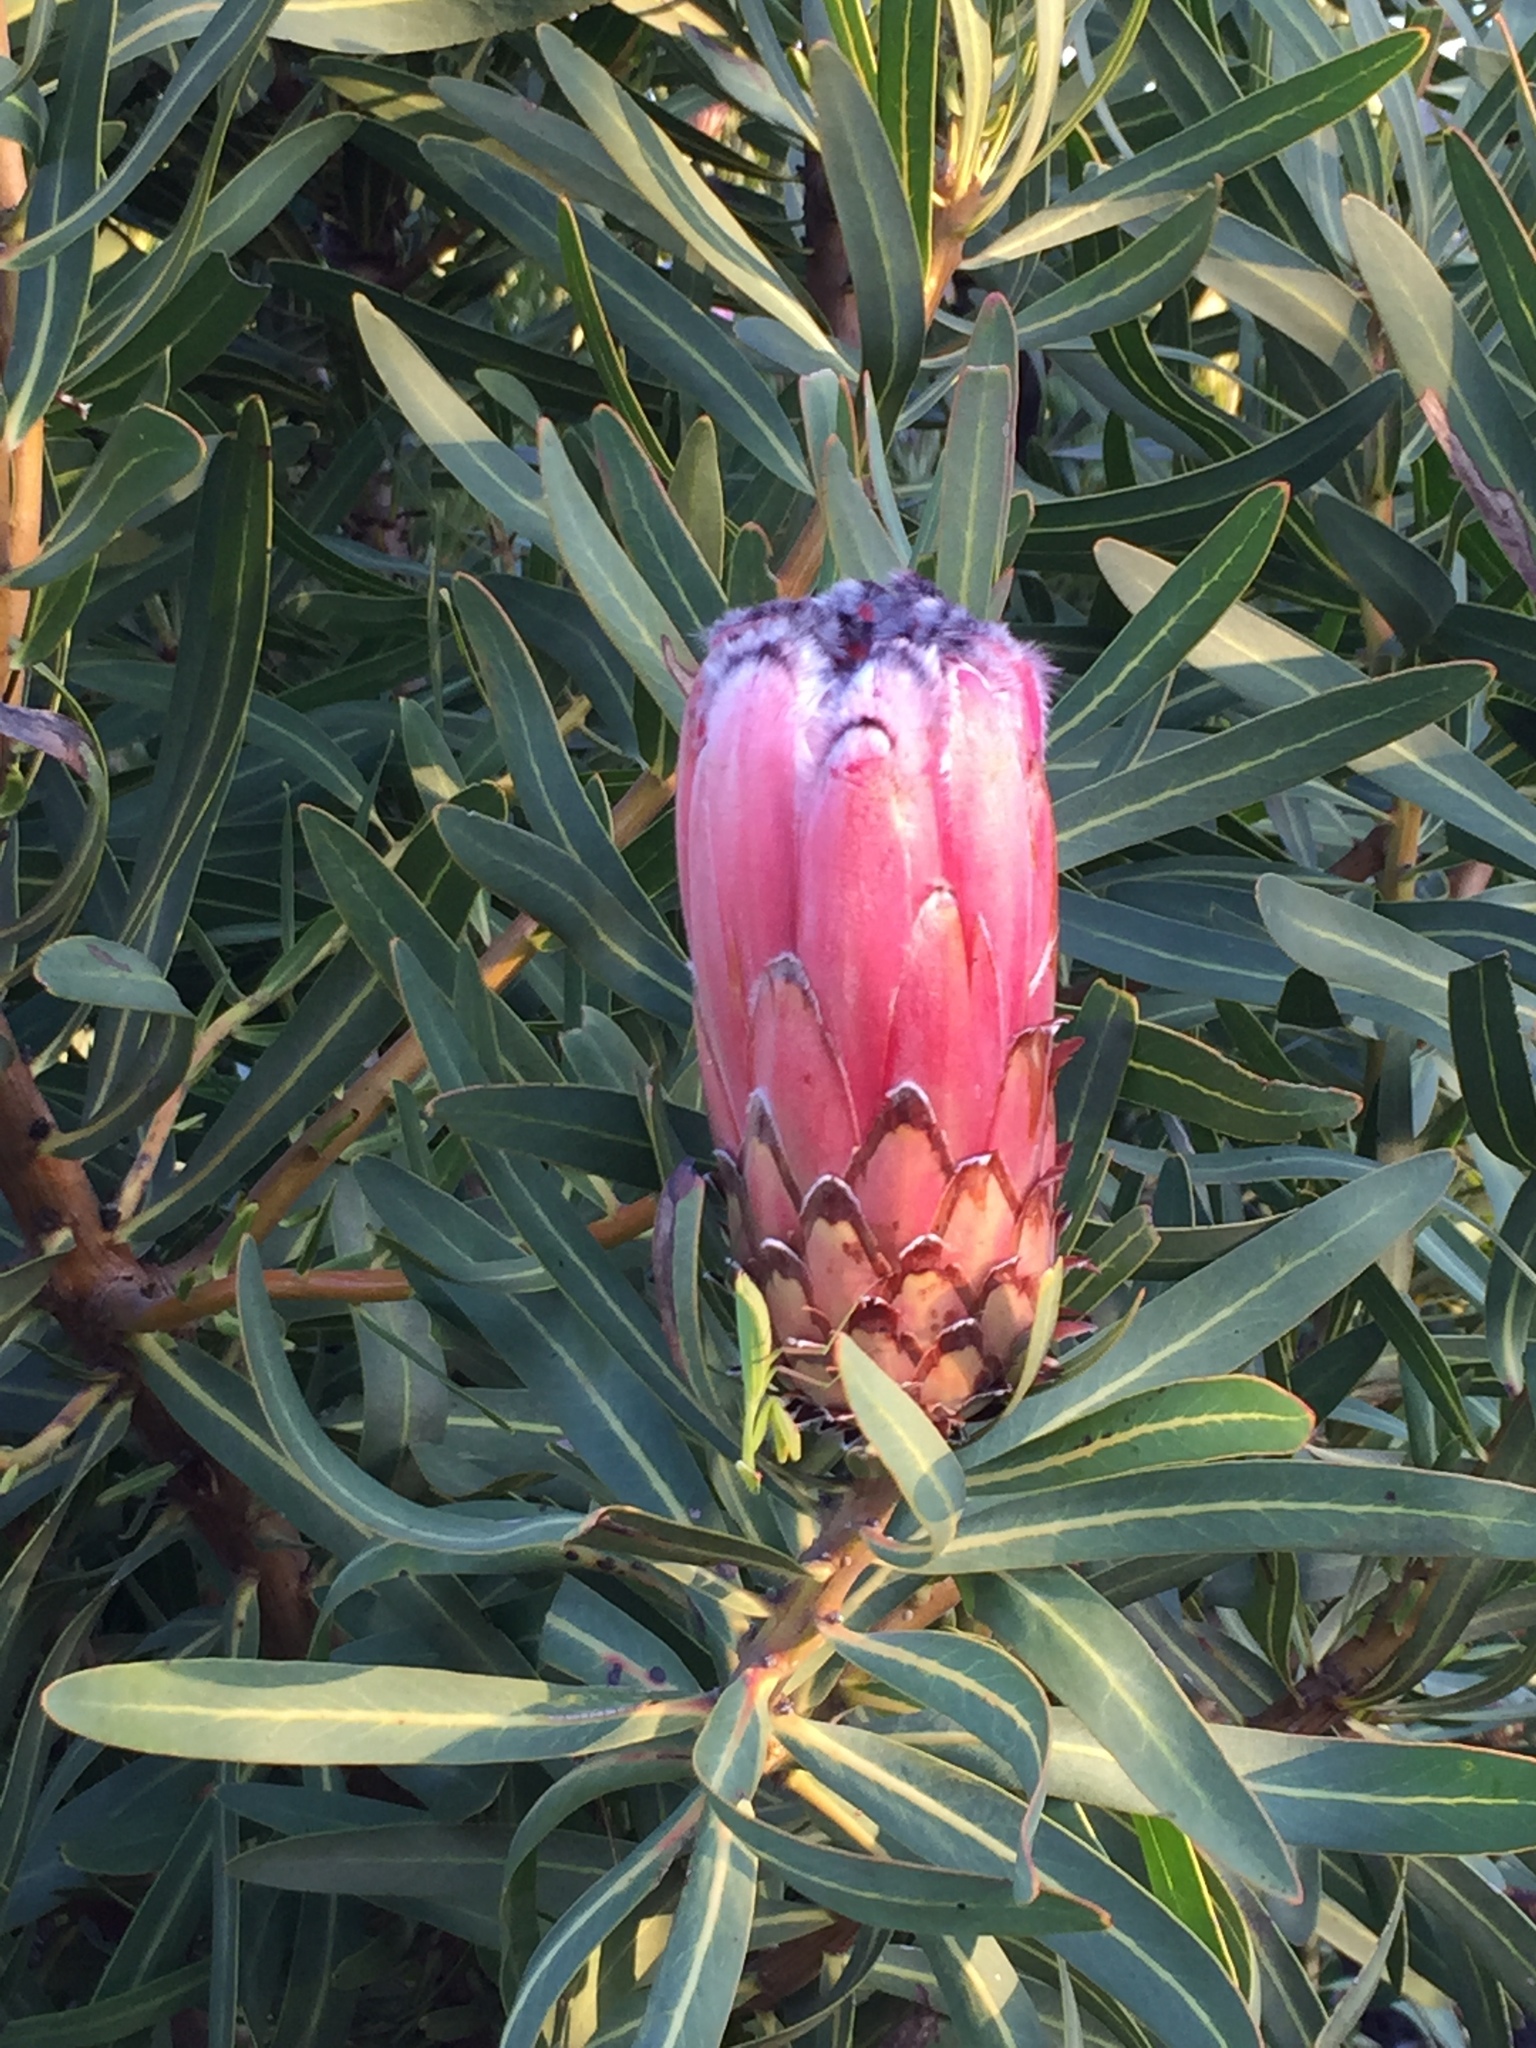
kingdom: Plantae
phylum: Tracheophyta
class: Magnoliopsida
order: Proteales
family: Proteaceae
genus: Protea
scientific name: Protea neriifolia
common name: Blue sugarbush
